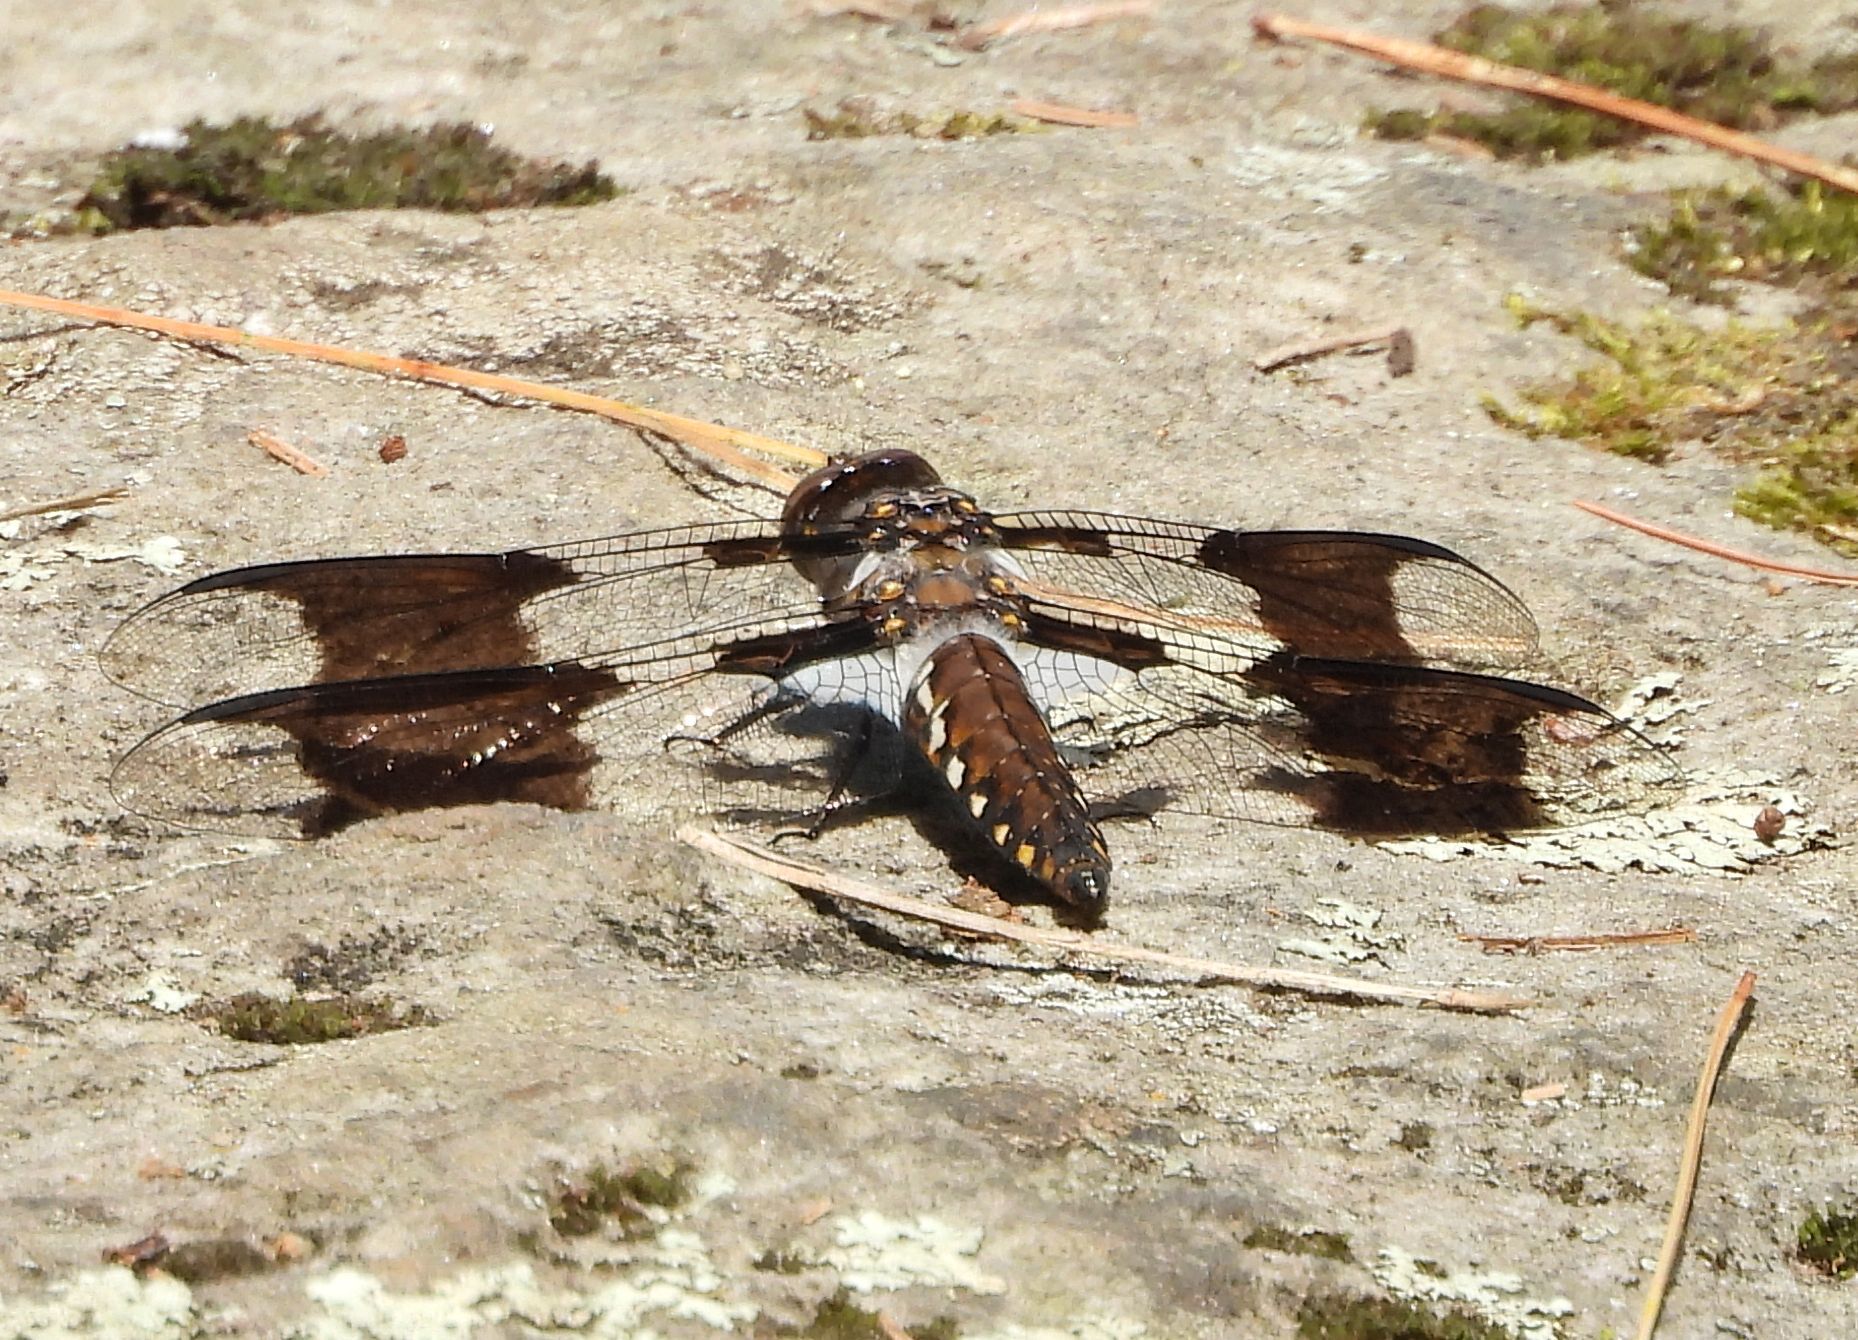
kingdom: Animalia
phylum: Arthropoda
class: Insecta
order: Odonata
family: Libellulidae
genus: Plathemis
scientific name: Plathemis lydia
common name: Common whitetail
